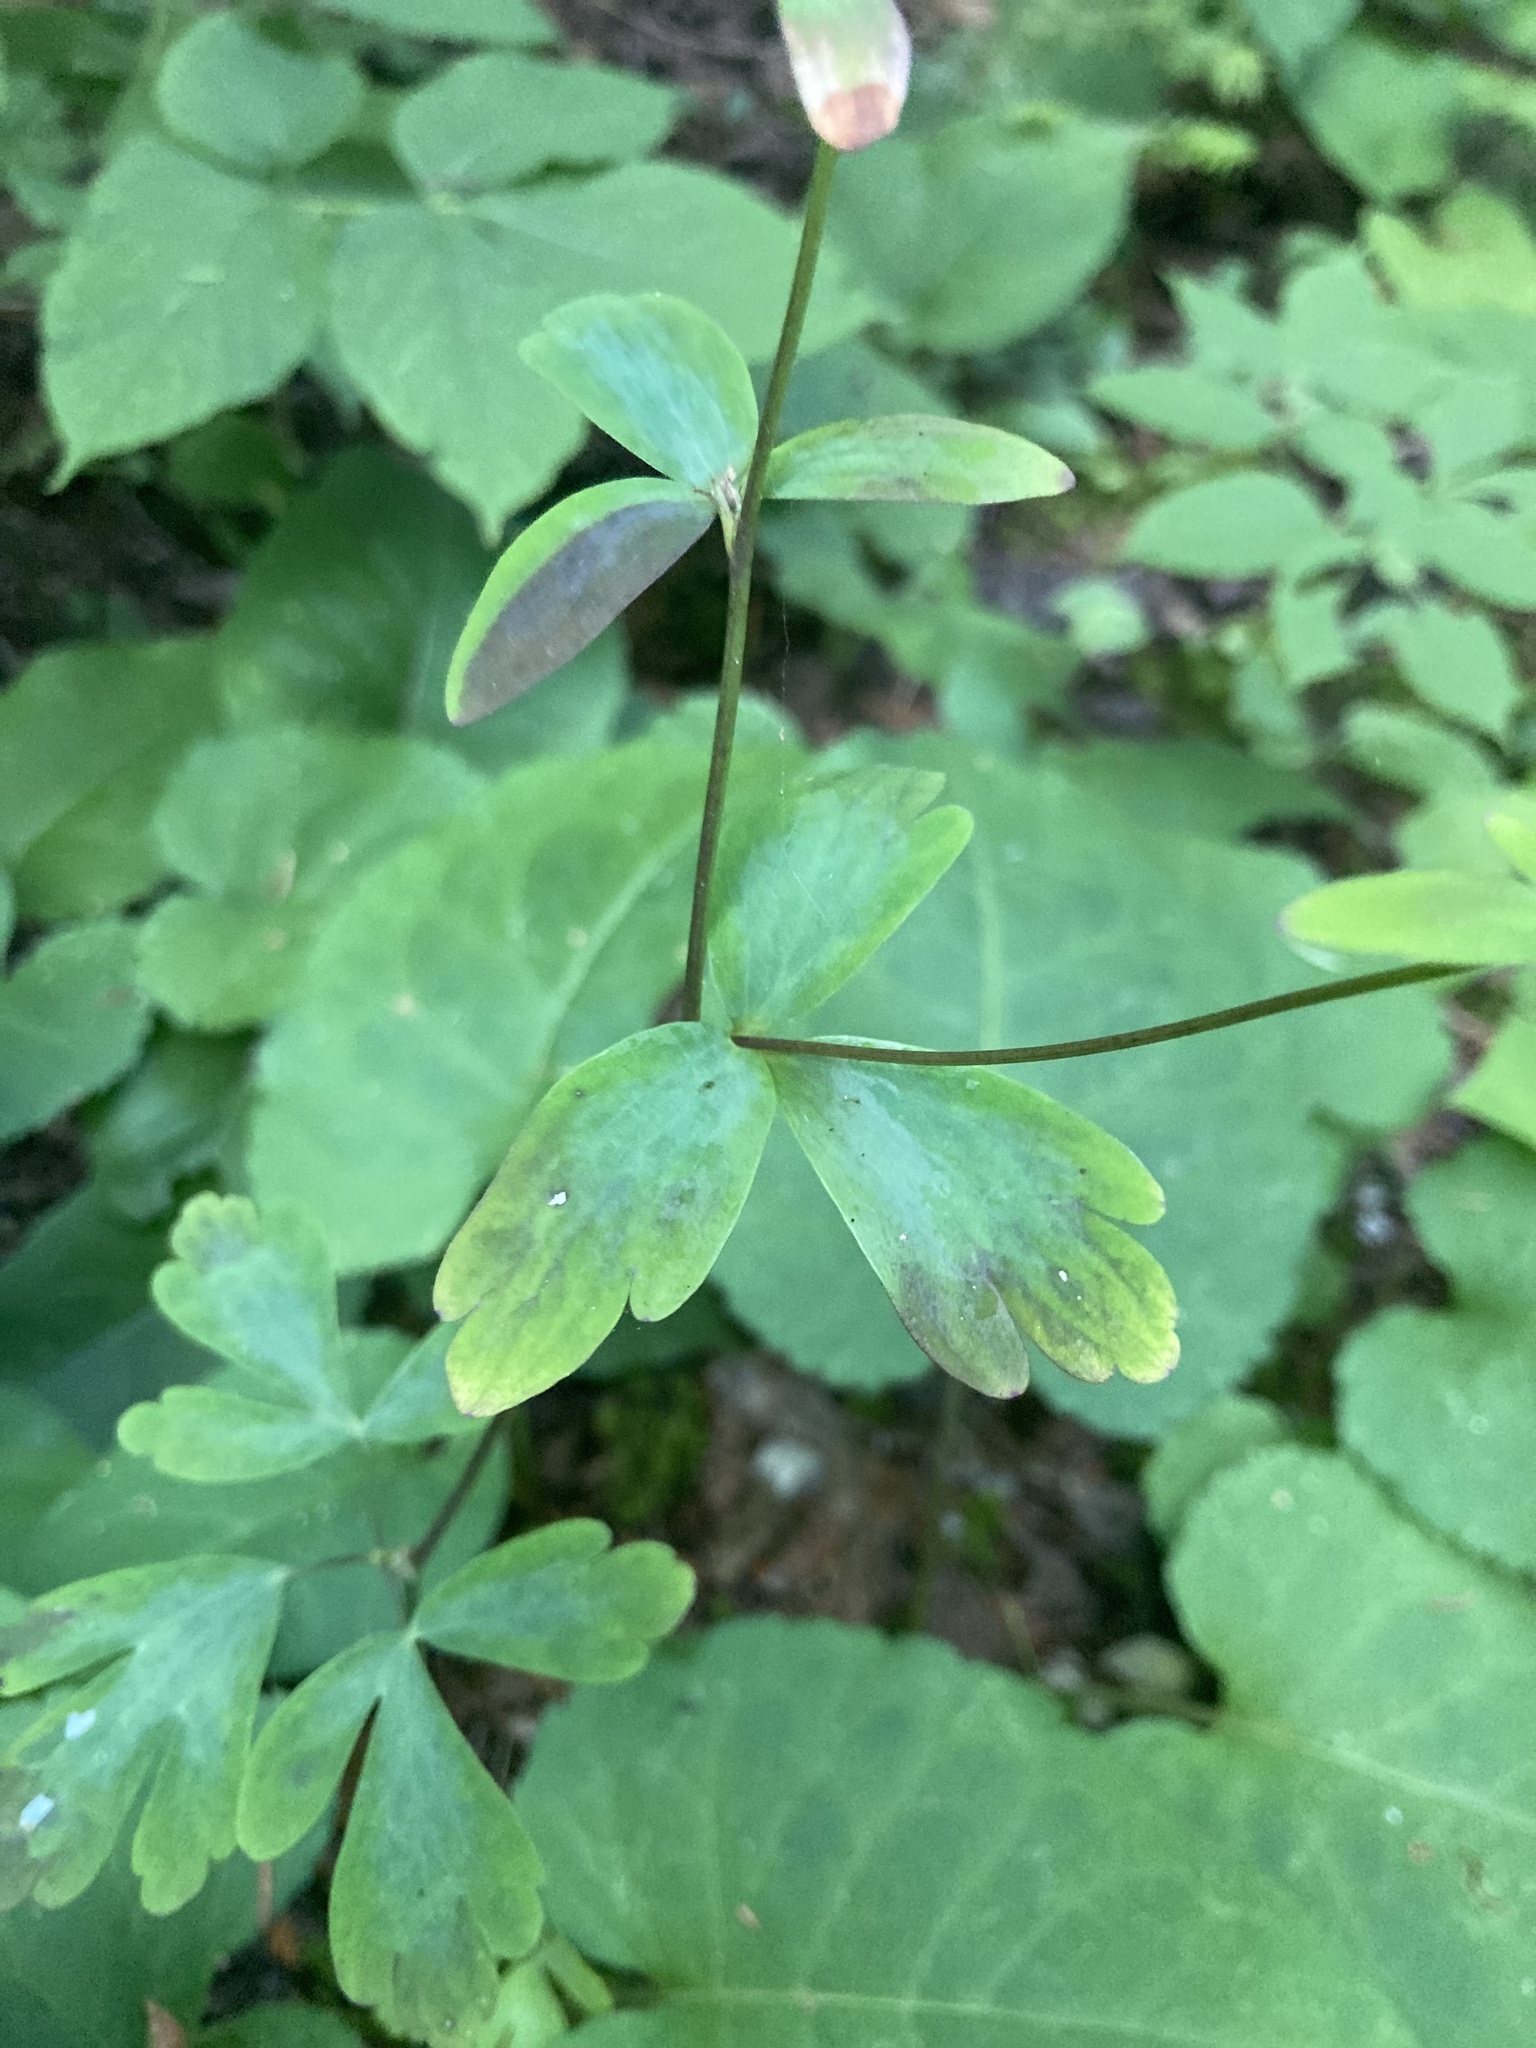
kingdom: Plantae
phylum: Tracheophyta
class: Magnoliopsida
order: Ranunculales
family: Ranunculaceae
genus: Aquilegia
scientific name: Aquilegia canadensis
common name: American columbine
